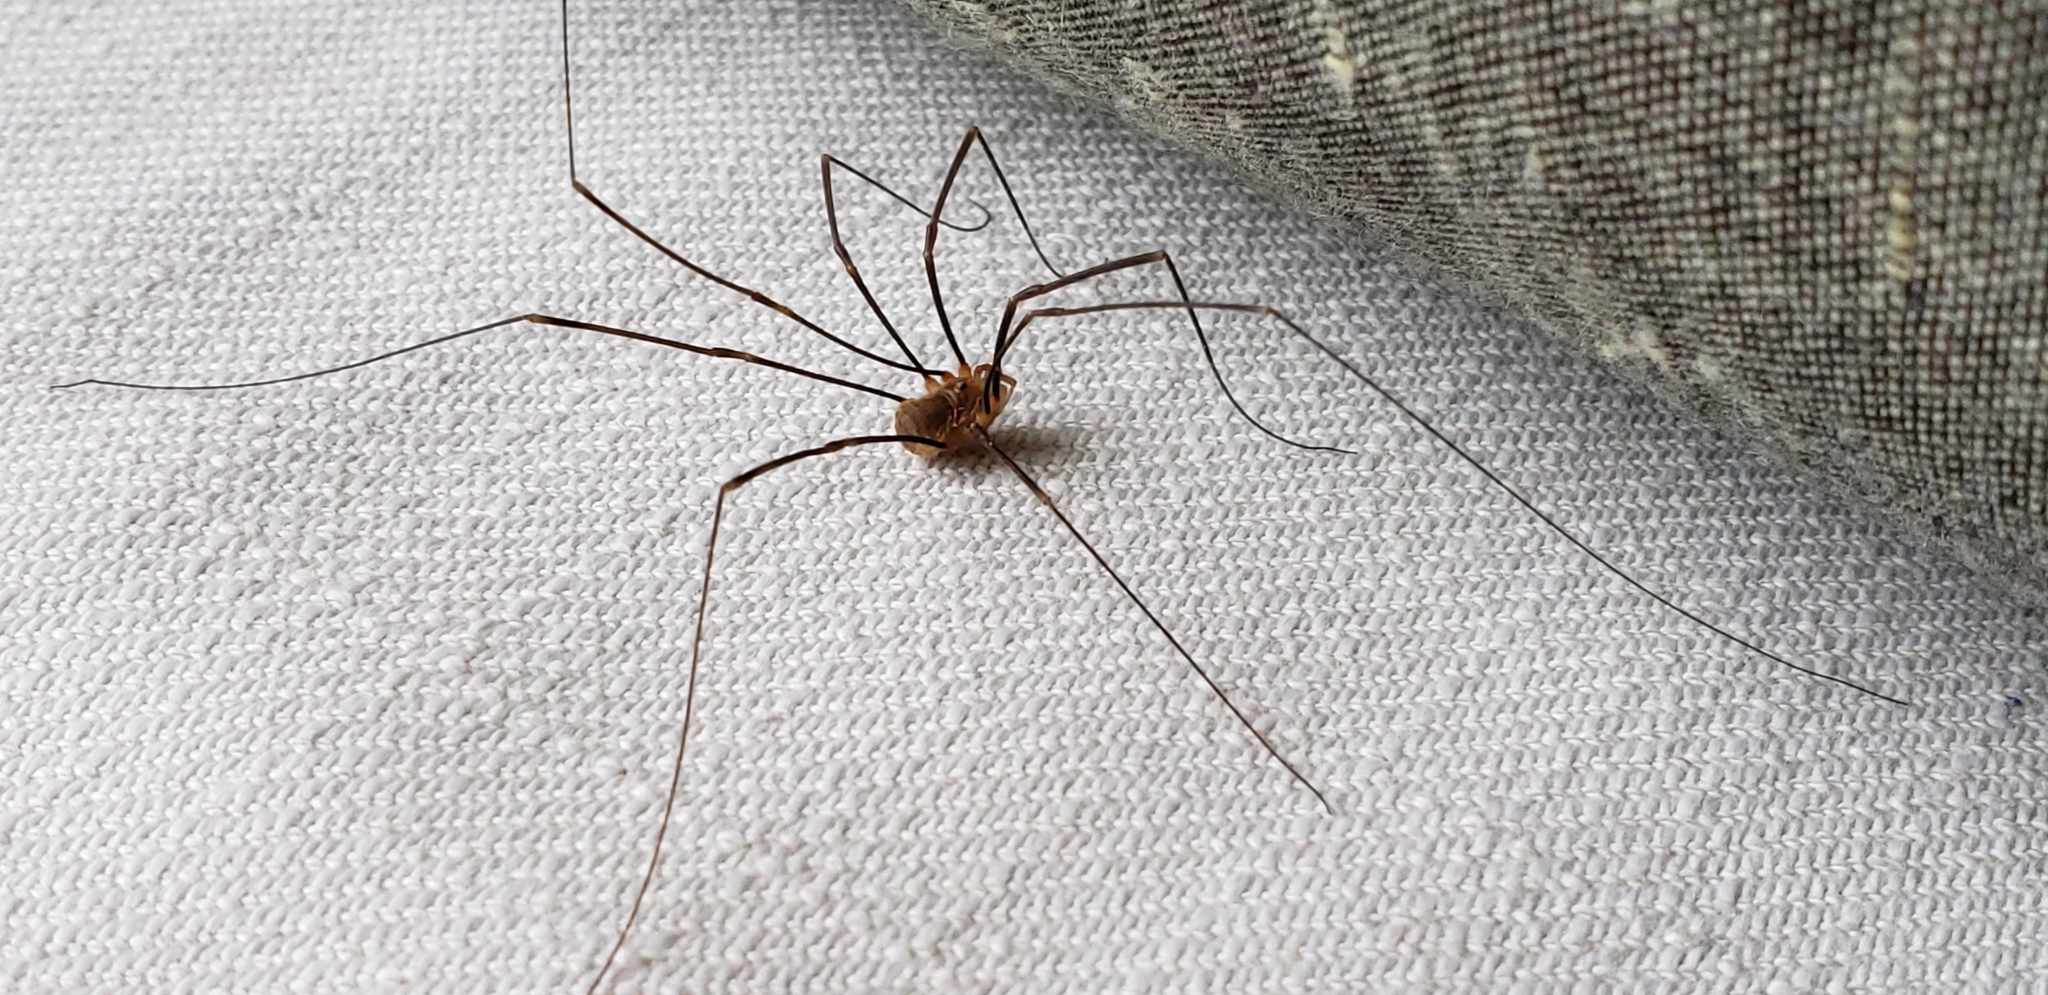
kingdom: Animalia
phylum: Arthropoda
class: Arachnida
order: Opiliones
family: Phalangiidae
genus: Opilio
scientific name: Opilio canestrinii
